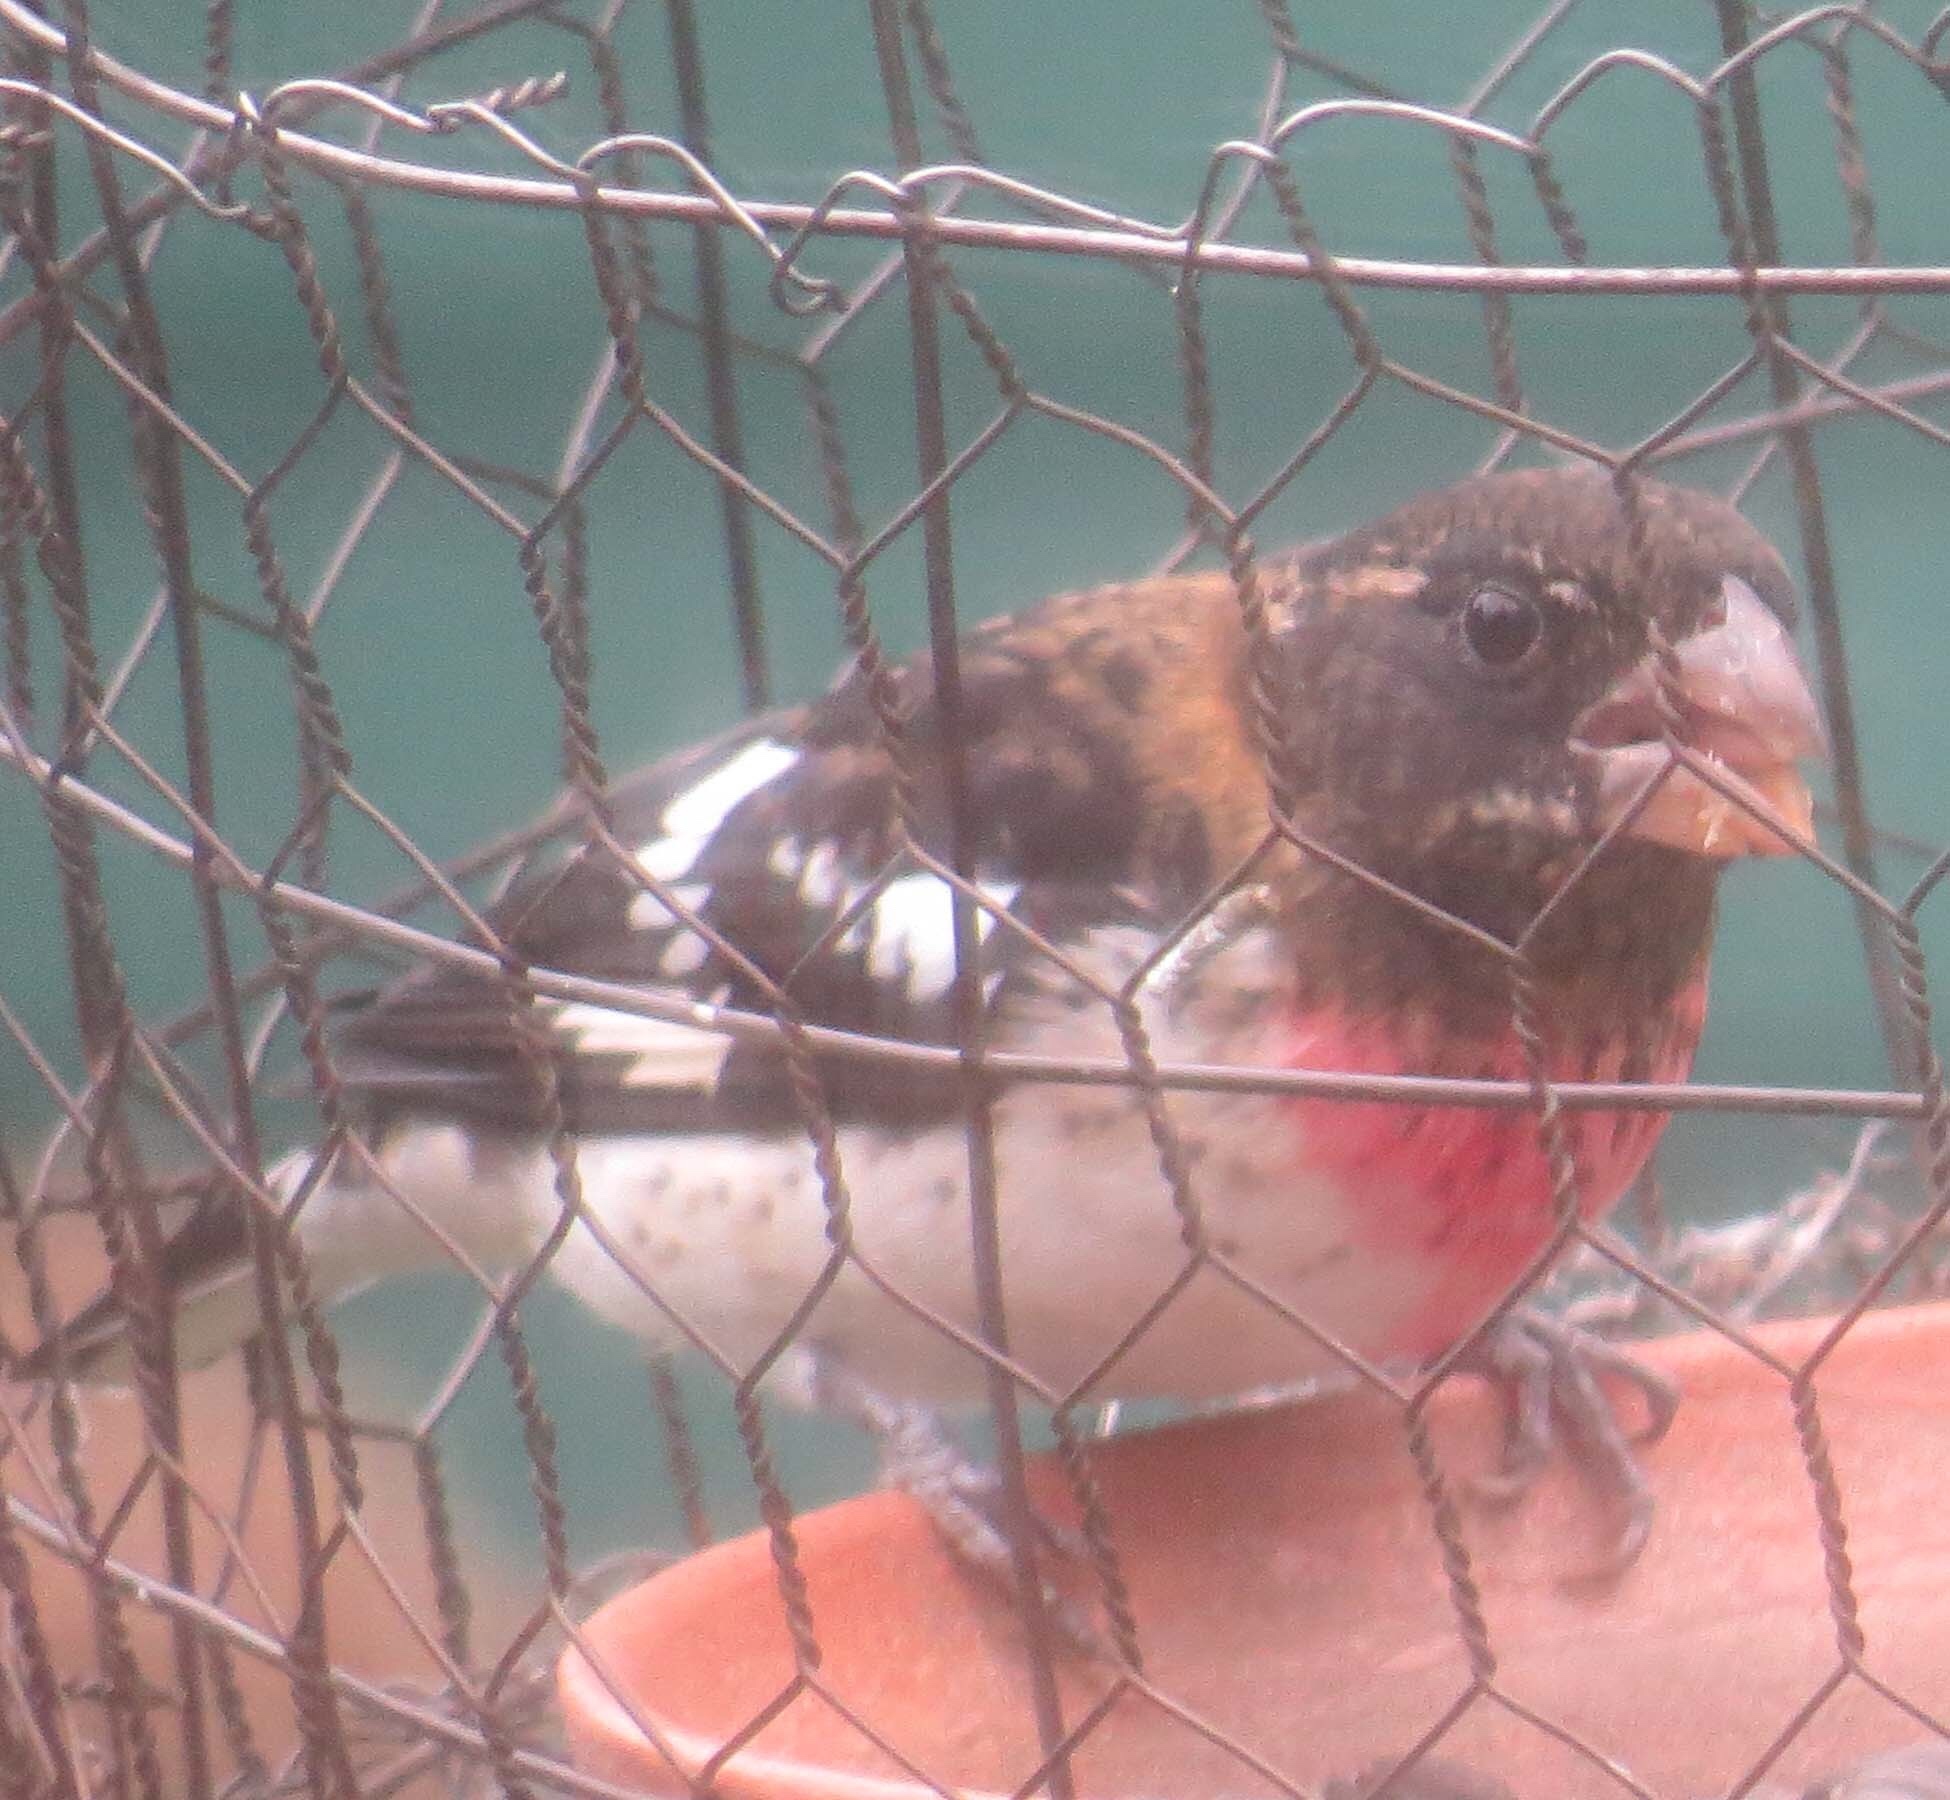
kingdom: Animalia
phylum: Chordata
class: Aves
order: Passeriformes
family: Cardinalidae
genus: Pheucticus
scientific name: Pheucticus ludovicianus
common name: Rose-breasted grosbeak
